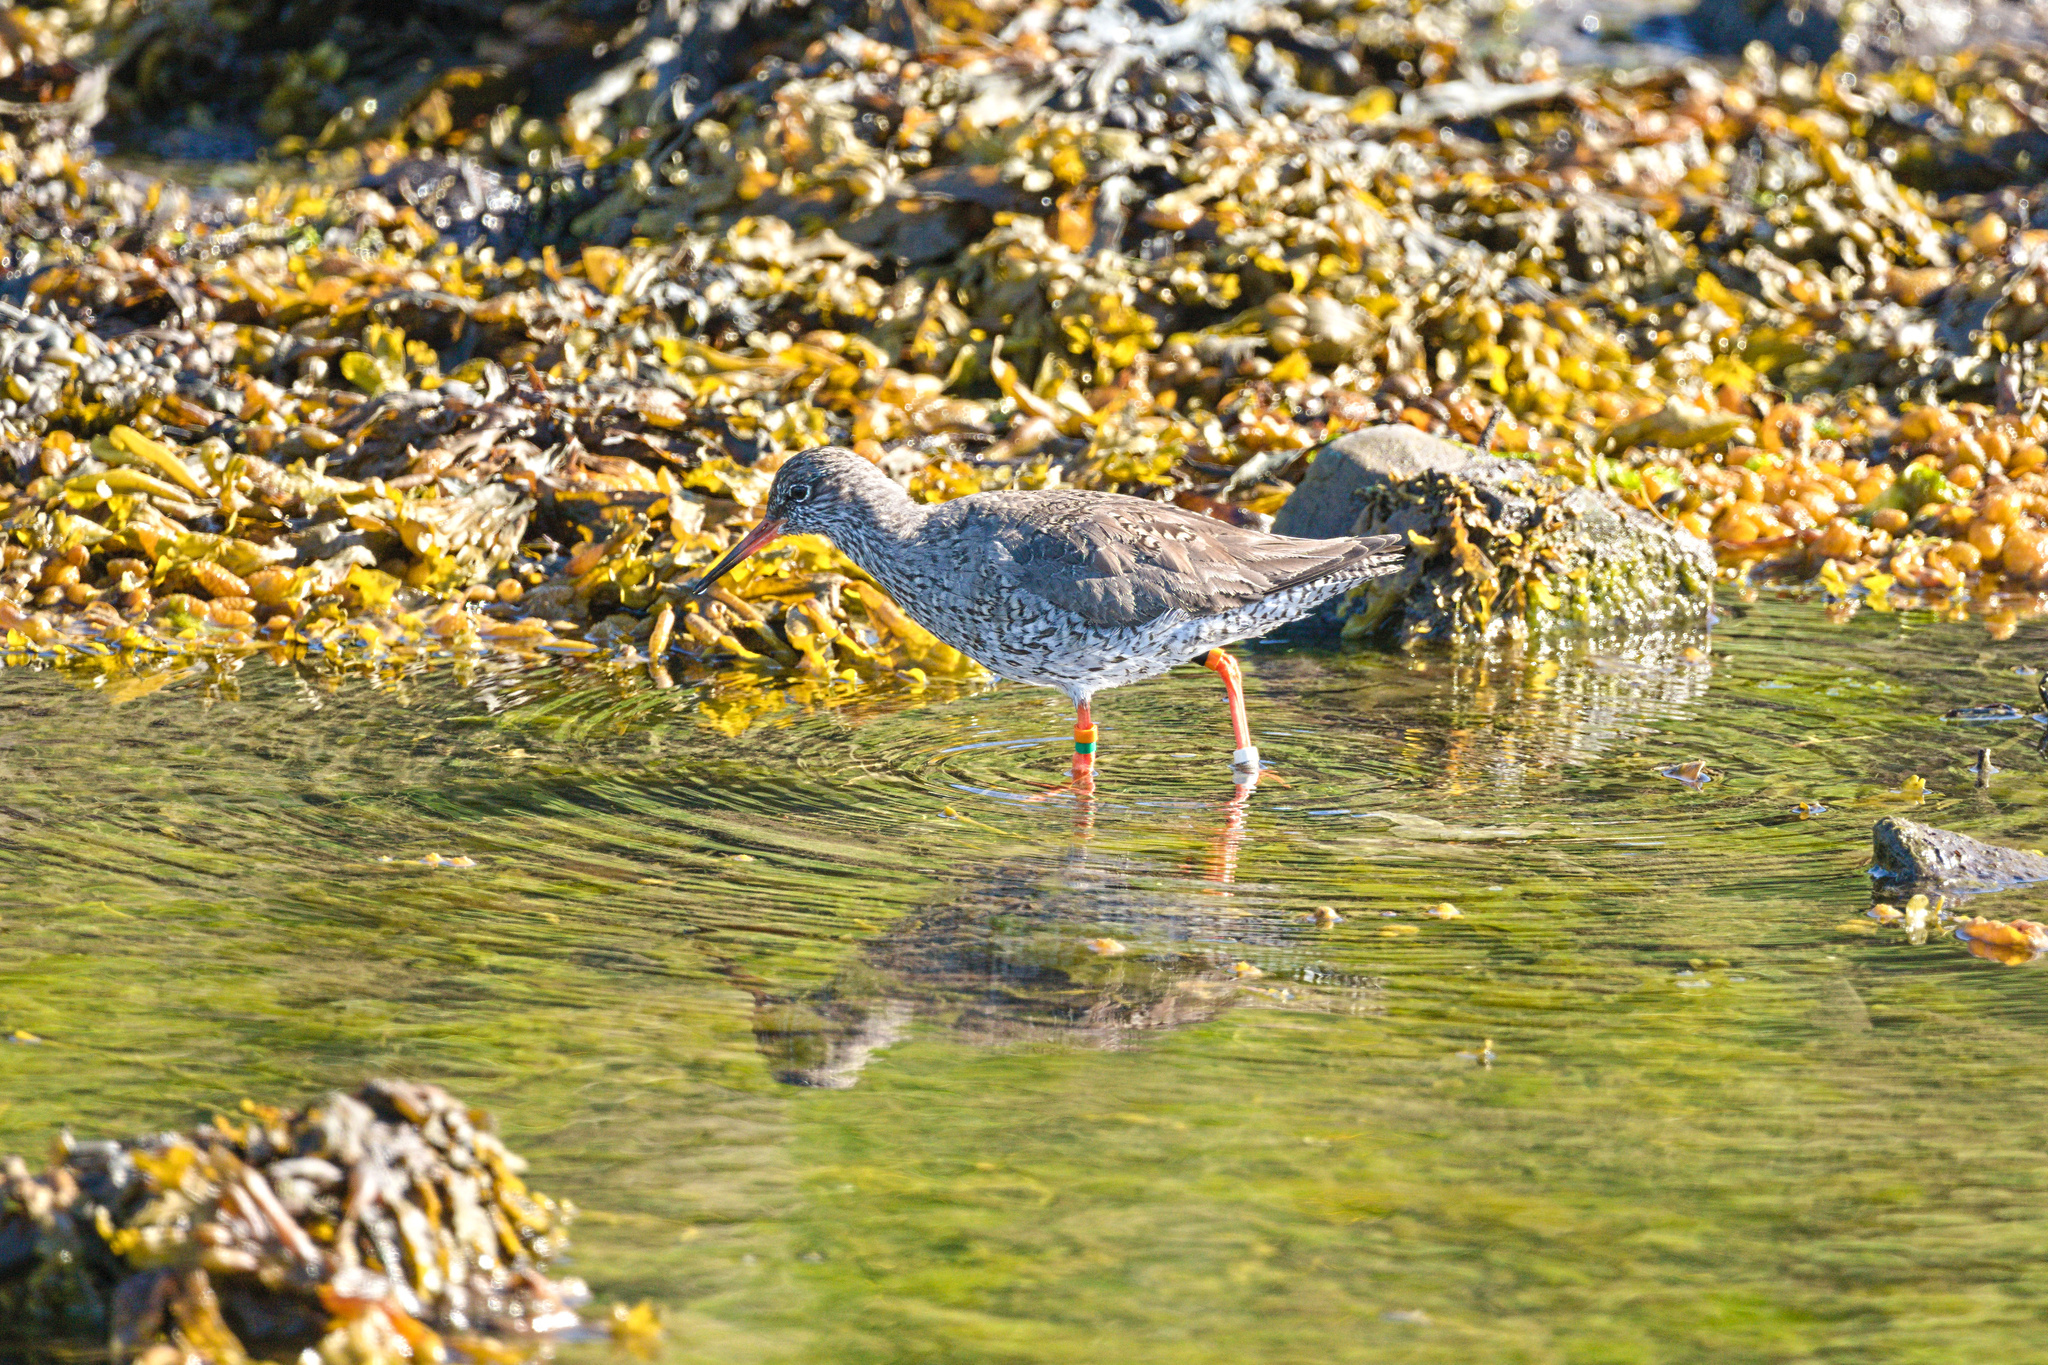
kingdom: Animalia
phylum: Chordata
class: Aves
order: Charadriiformes
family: Scolopacidae
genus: Tringa
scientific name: Tringa totanus
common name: Common redshank
